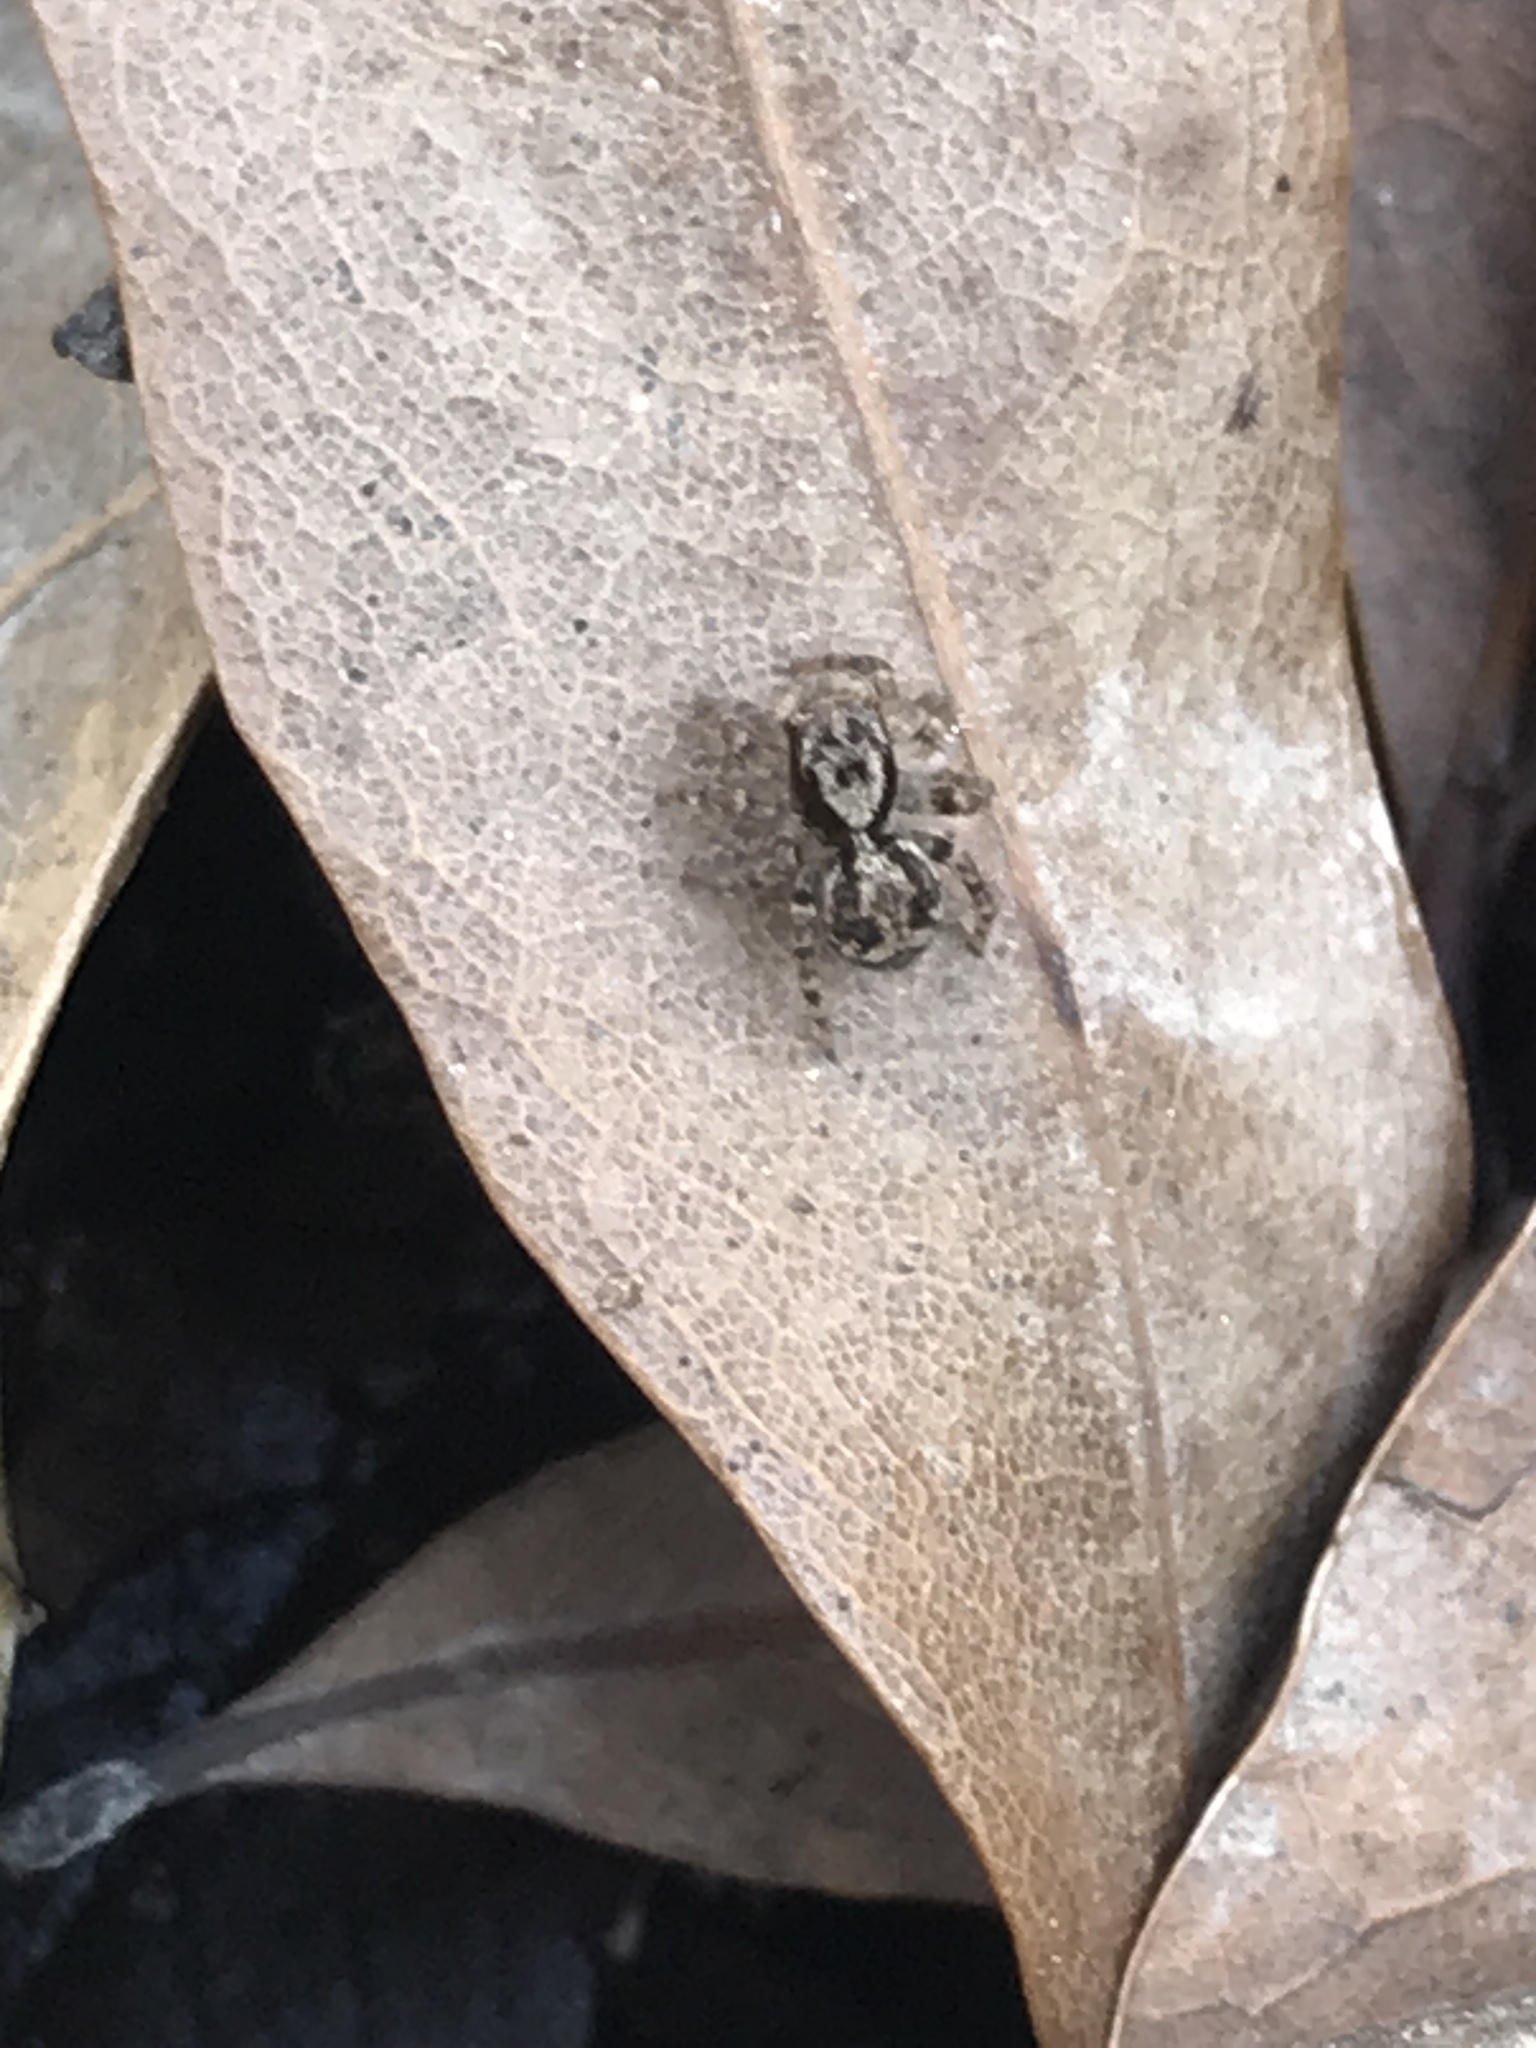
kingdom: Animalia
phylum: Arthropoda
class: Arachnida
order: Araneae
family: Salticidae
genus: Naphrys
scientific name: Naphrys pulex
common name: Flea jumping spider
